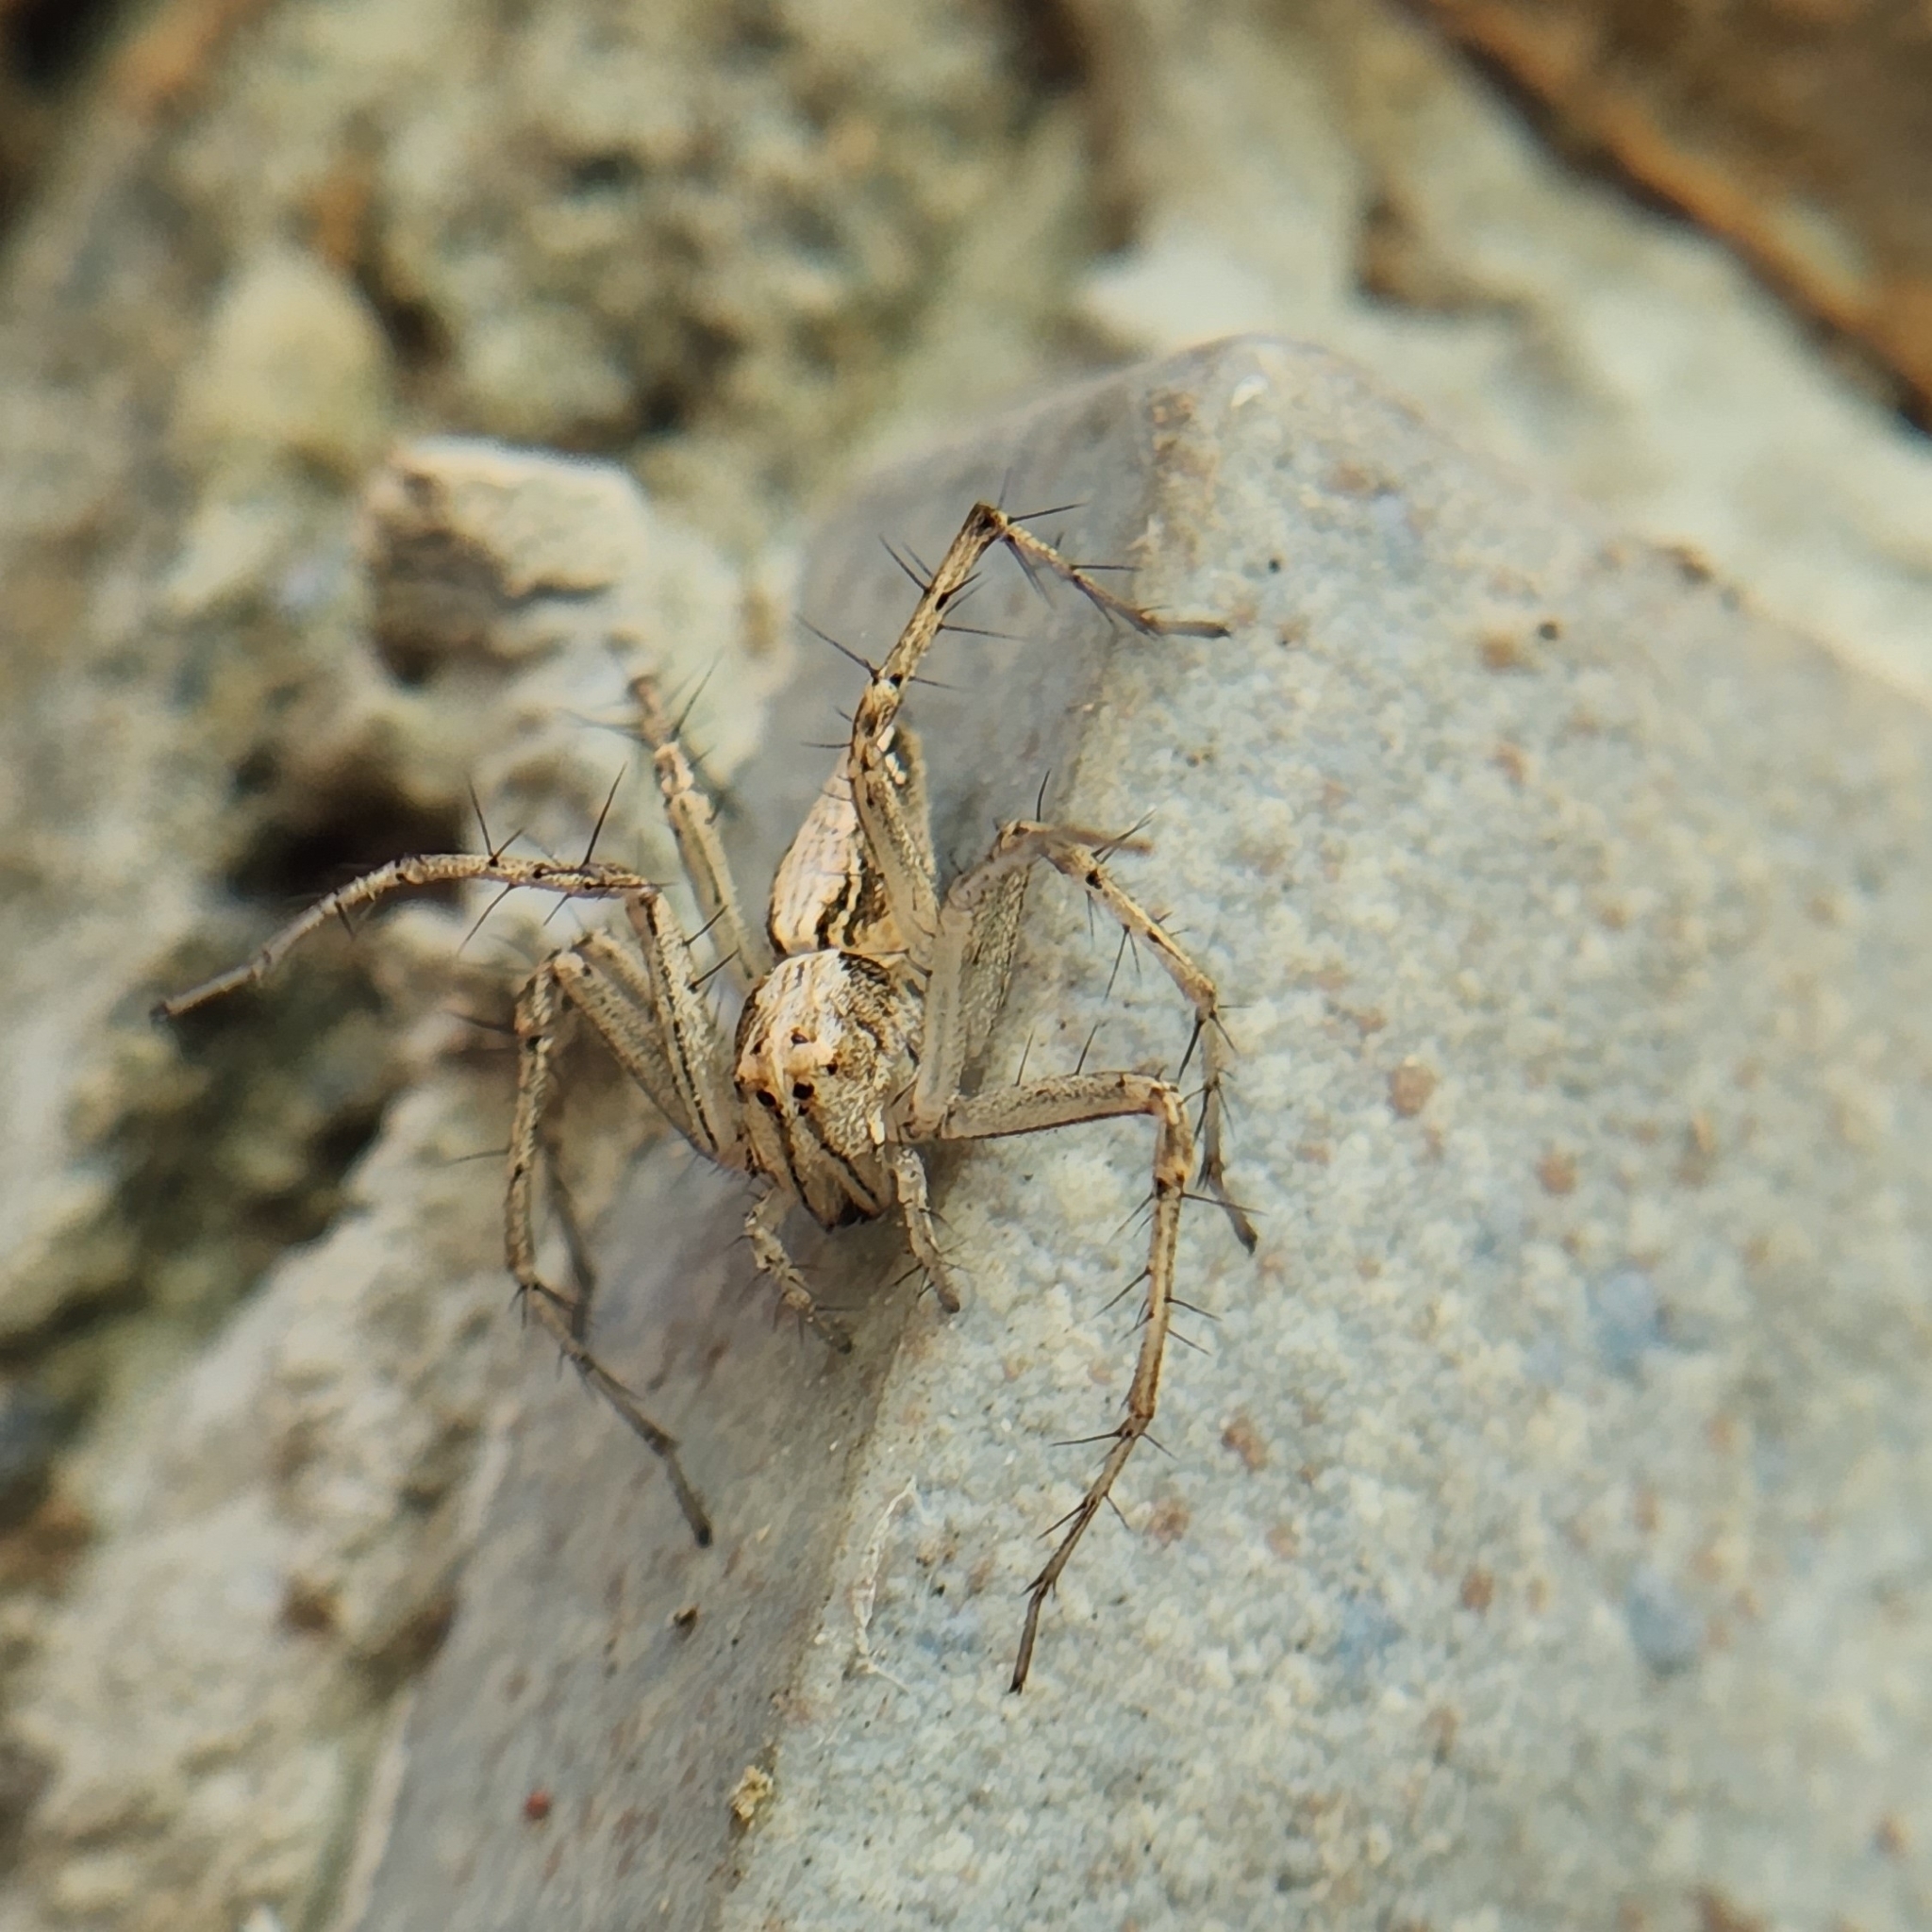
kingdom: Animalia
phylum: Arthropoda
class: Arachnida
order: Araneae
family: Oxyopidae
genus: Oxyopes
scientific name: Oxyopes sertatus
